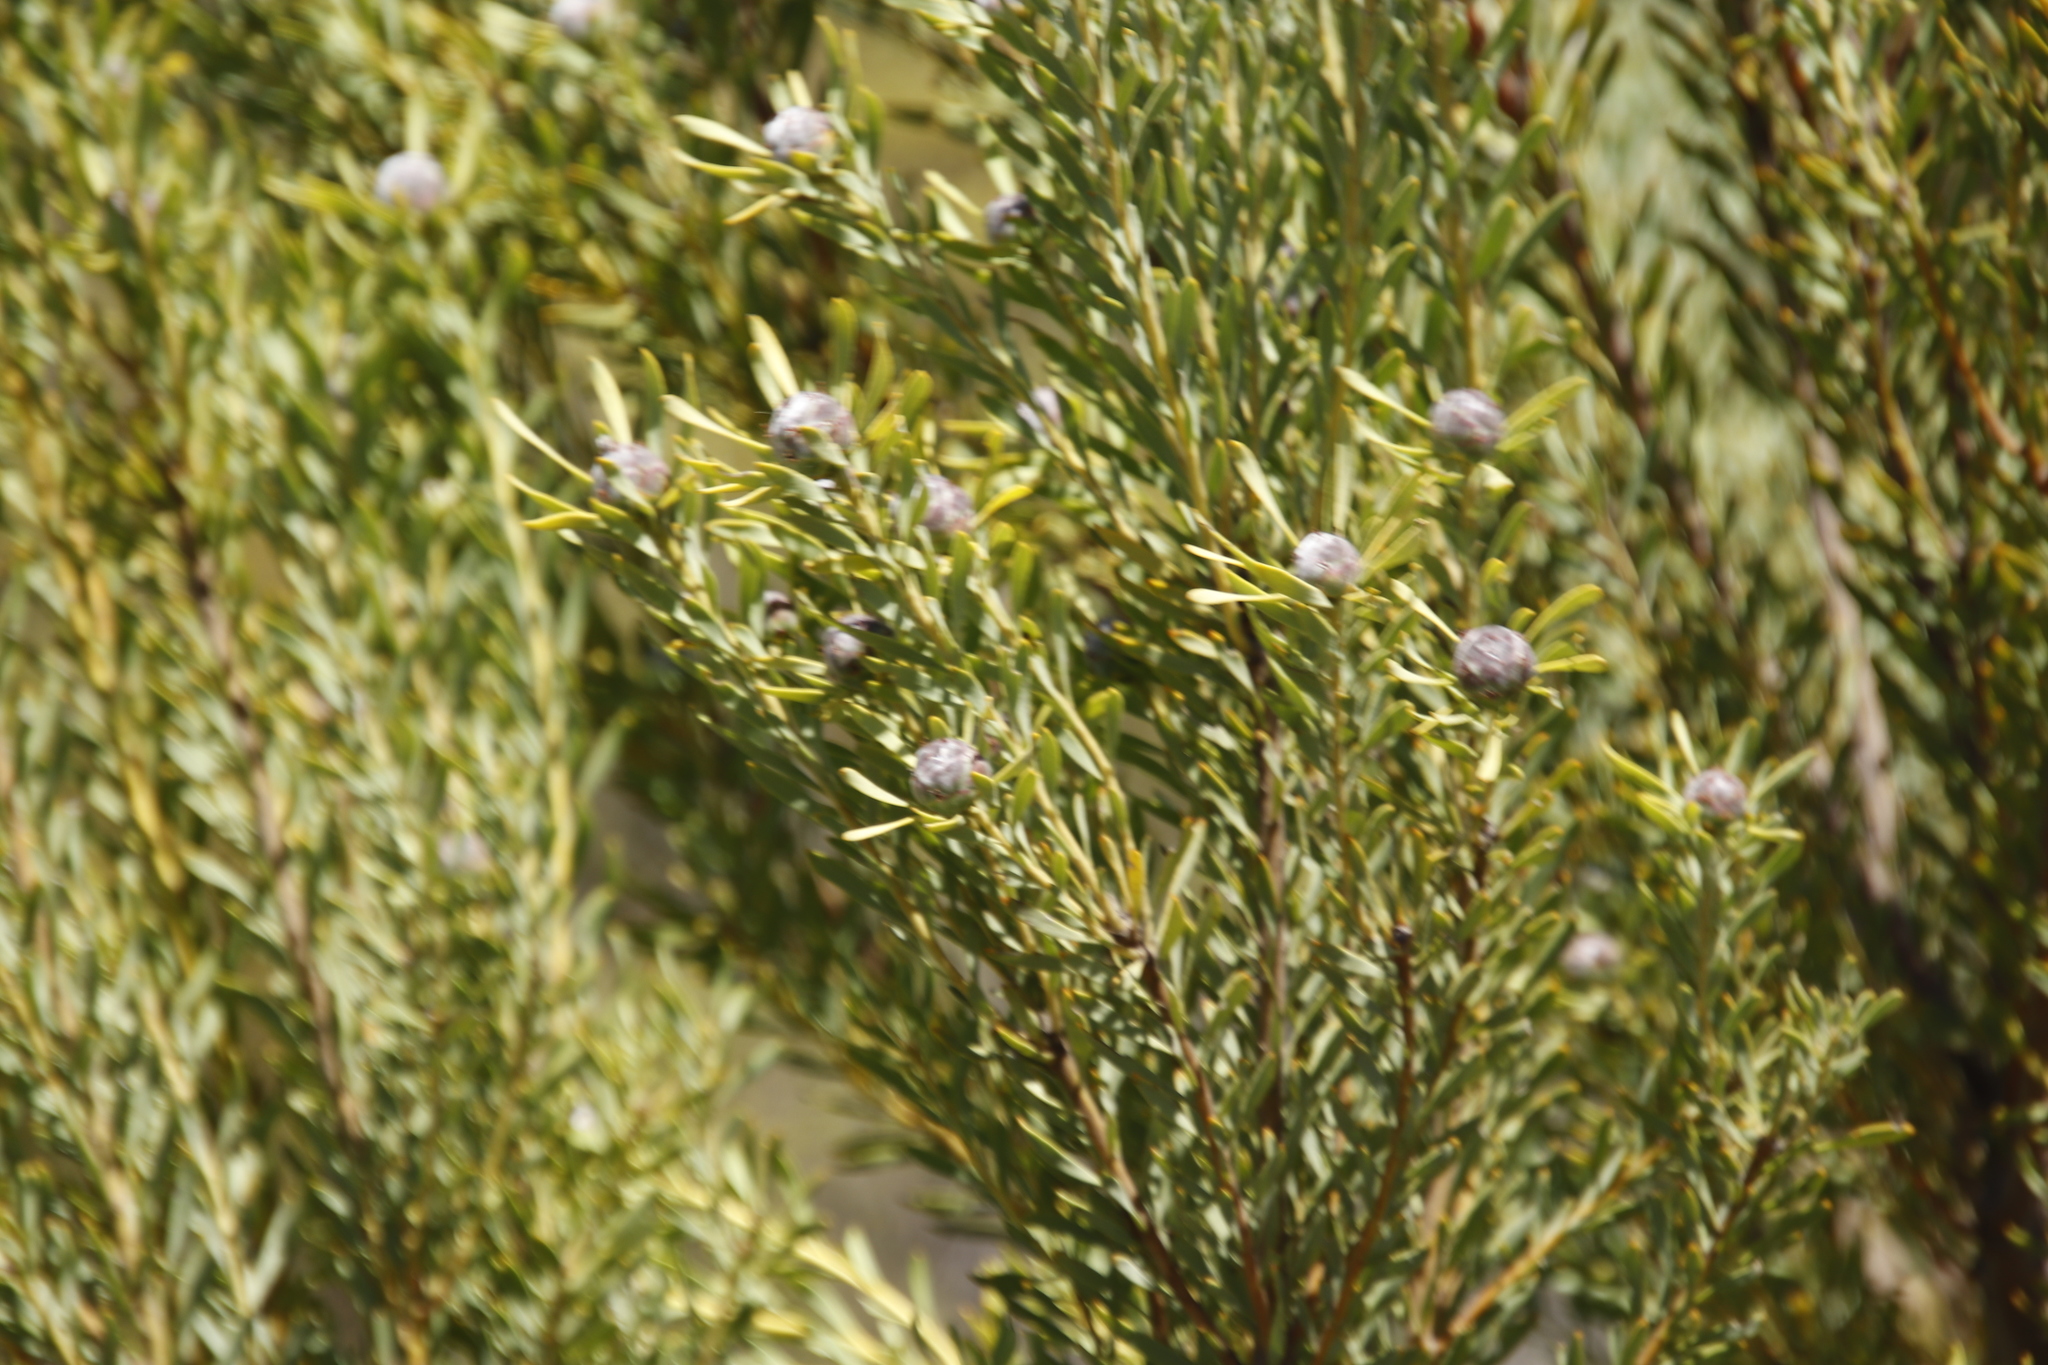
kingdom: Plantae
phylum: Tracheophyta
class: Magnoliopsida
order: Proteales
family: Proteaceae
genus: Leucadendron
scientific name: Leucadendron pubescens
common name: Grey conebush
